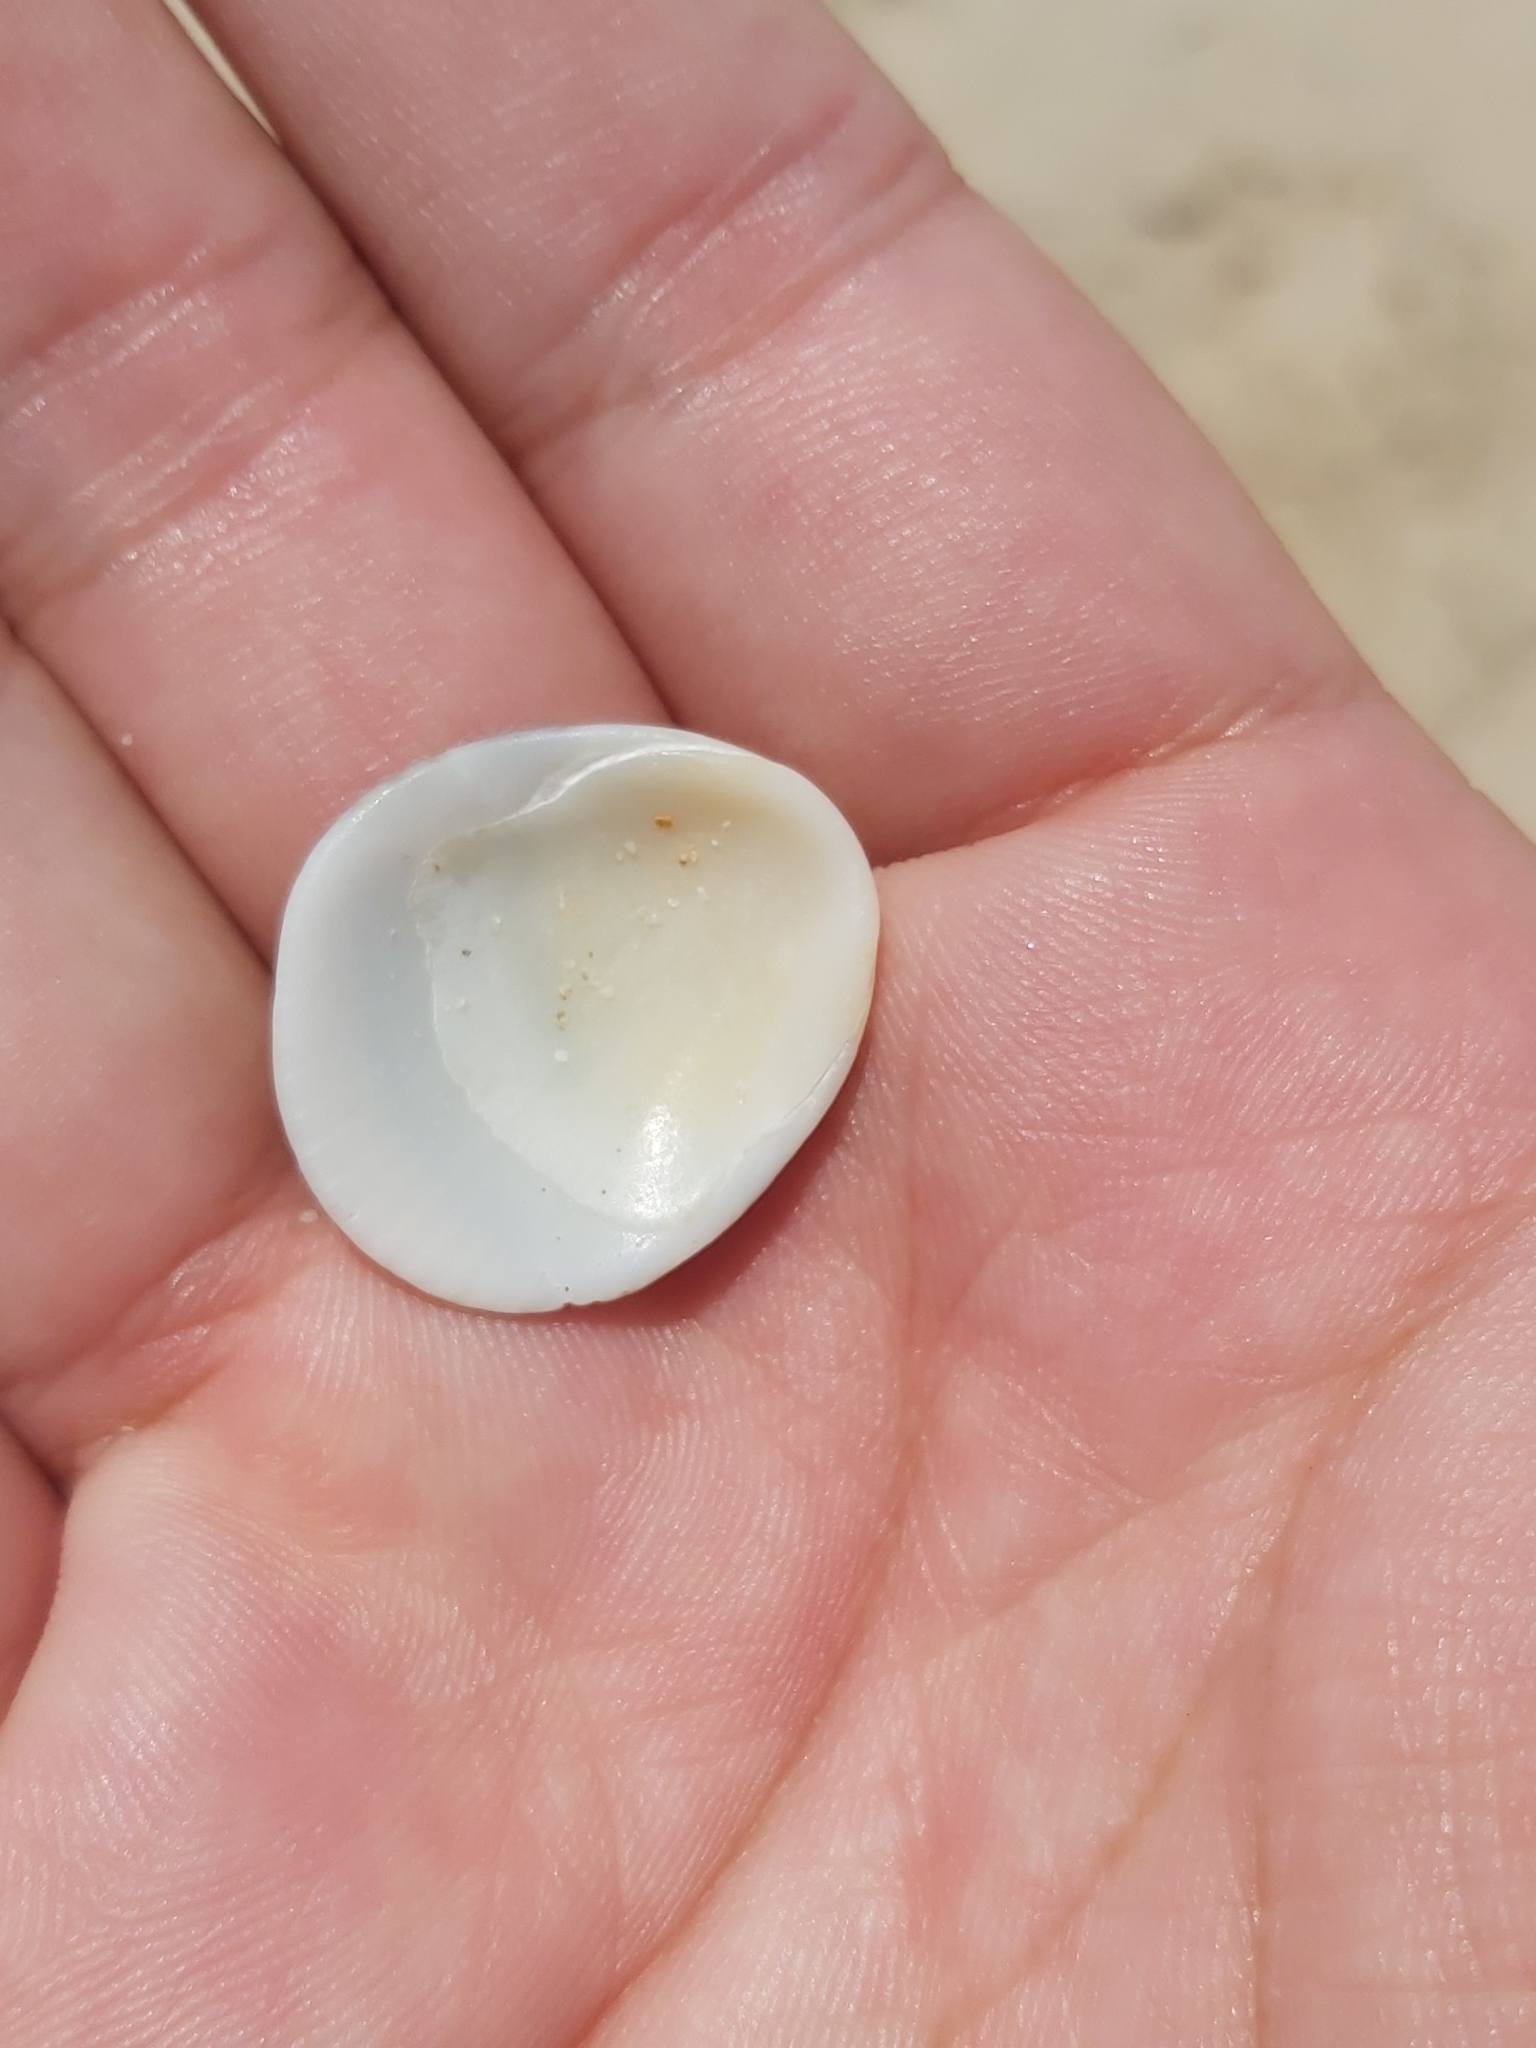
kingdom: Animalia
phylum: Mollusca
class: Bivalvia
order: Arcida
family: Glycymerididae
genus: Glycymeris
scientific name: Glycymeris grayana
